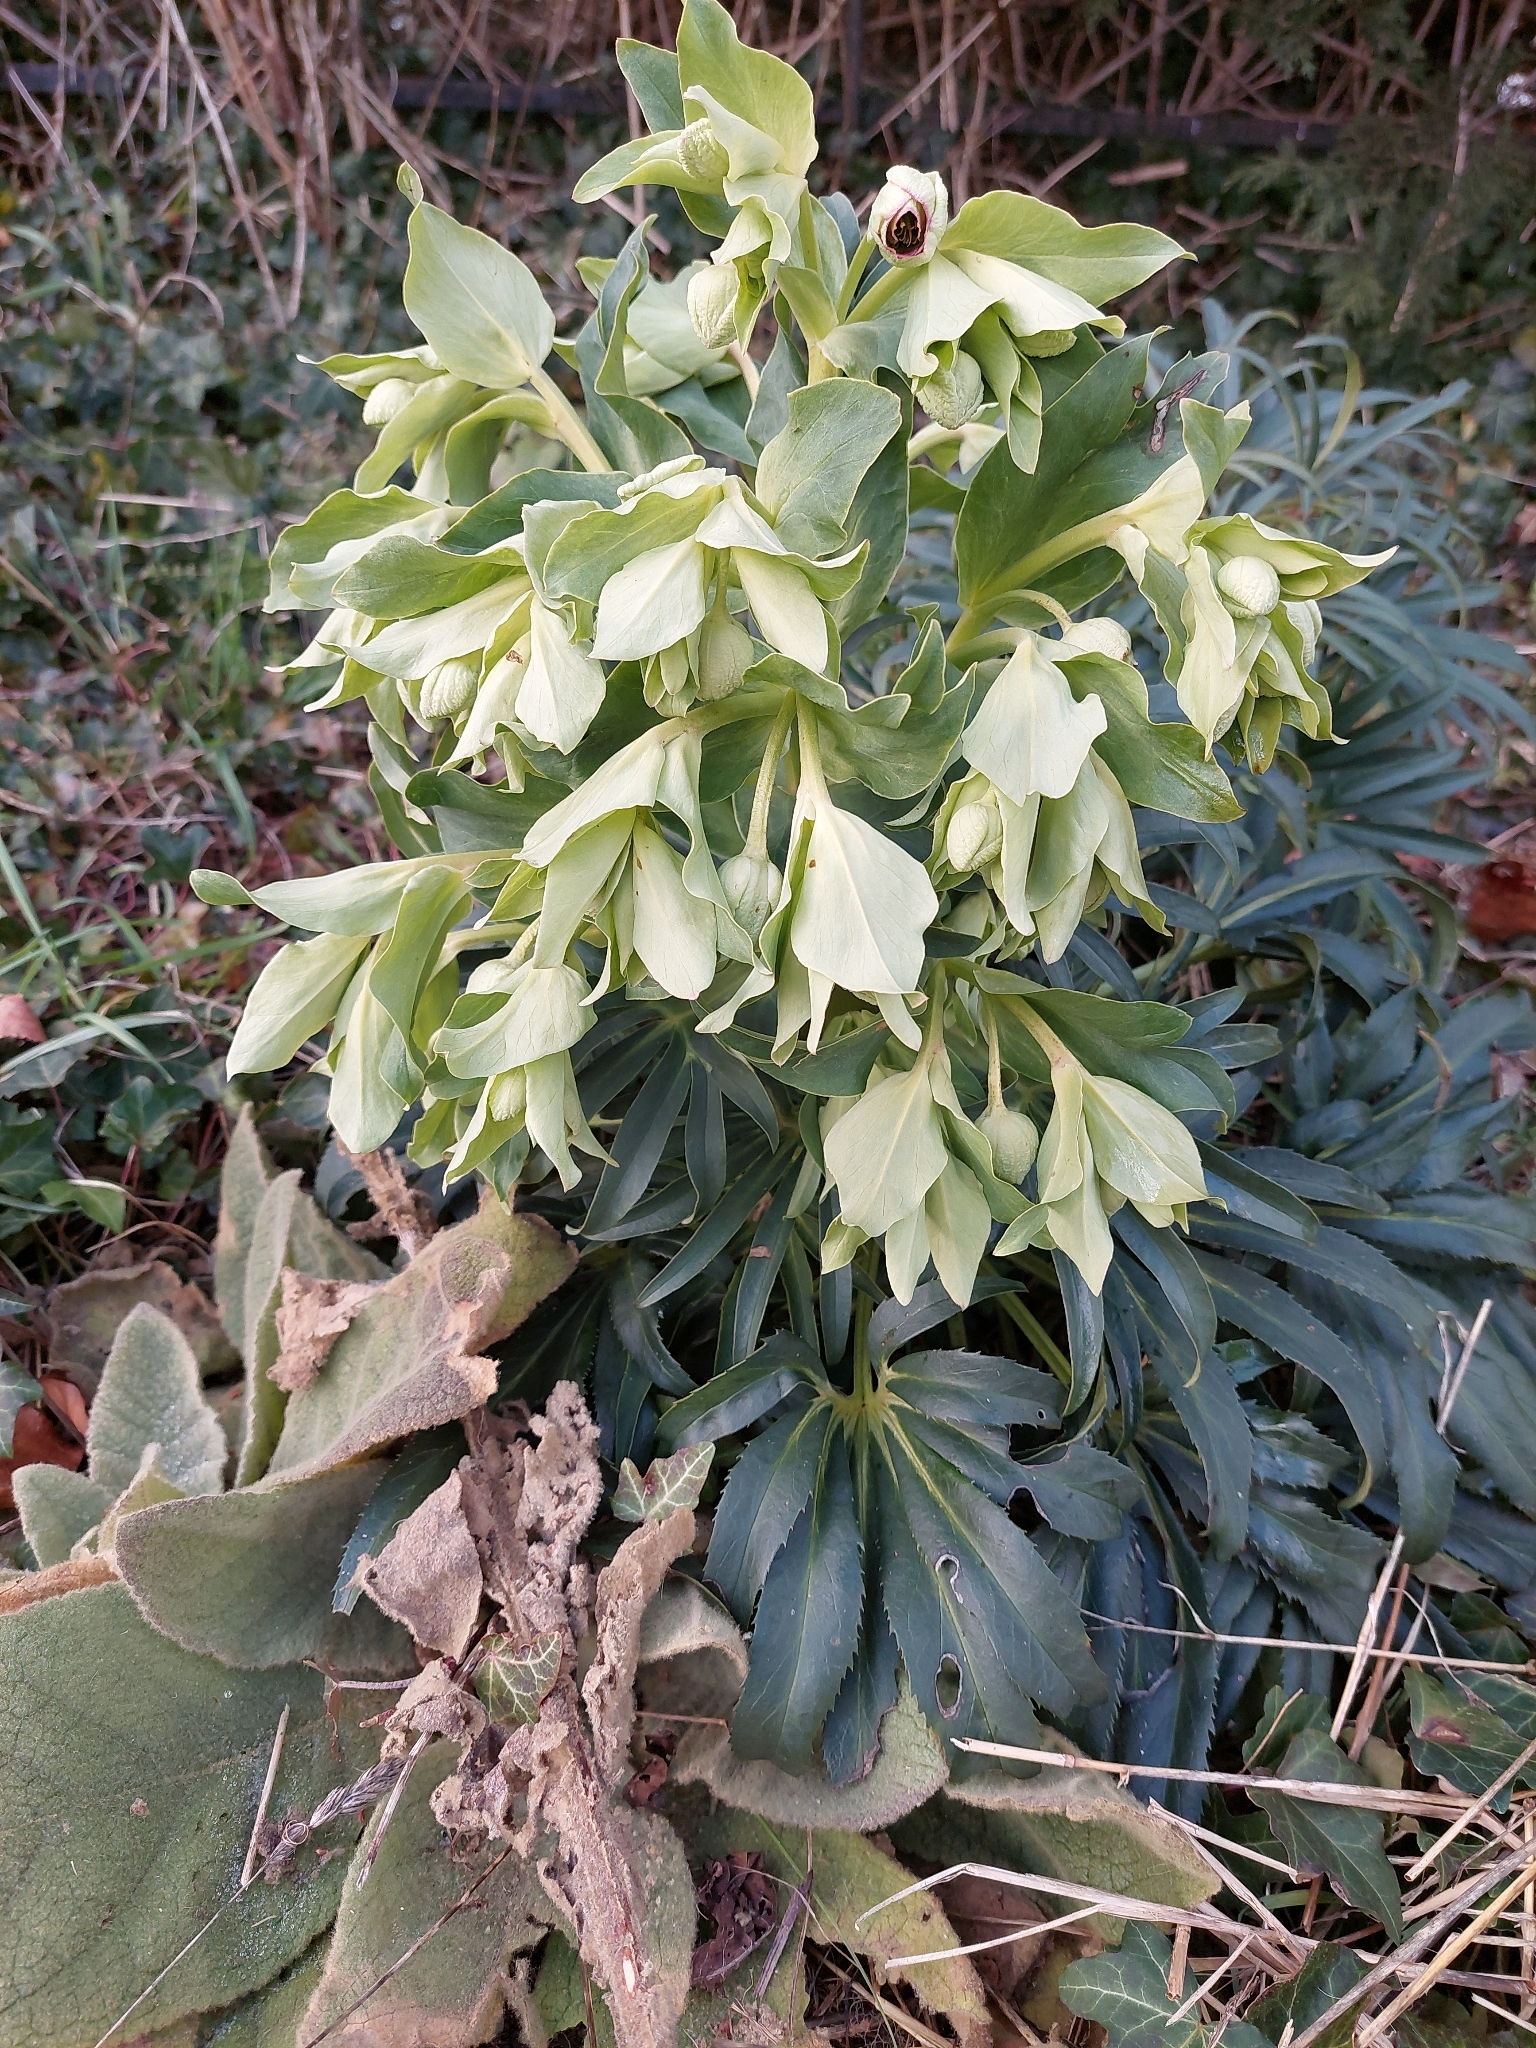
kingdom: Plantae
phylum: Tracheophyta
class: Magnoliopsida
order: Ranunculales
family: Ranunculaceae
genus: Helleborus
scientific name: Helleborus foetidus
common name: Stinking hellebore
